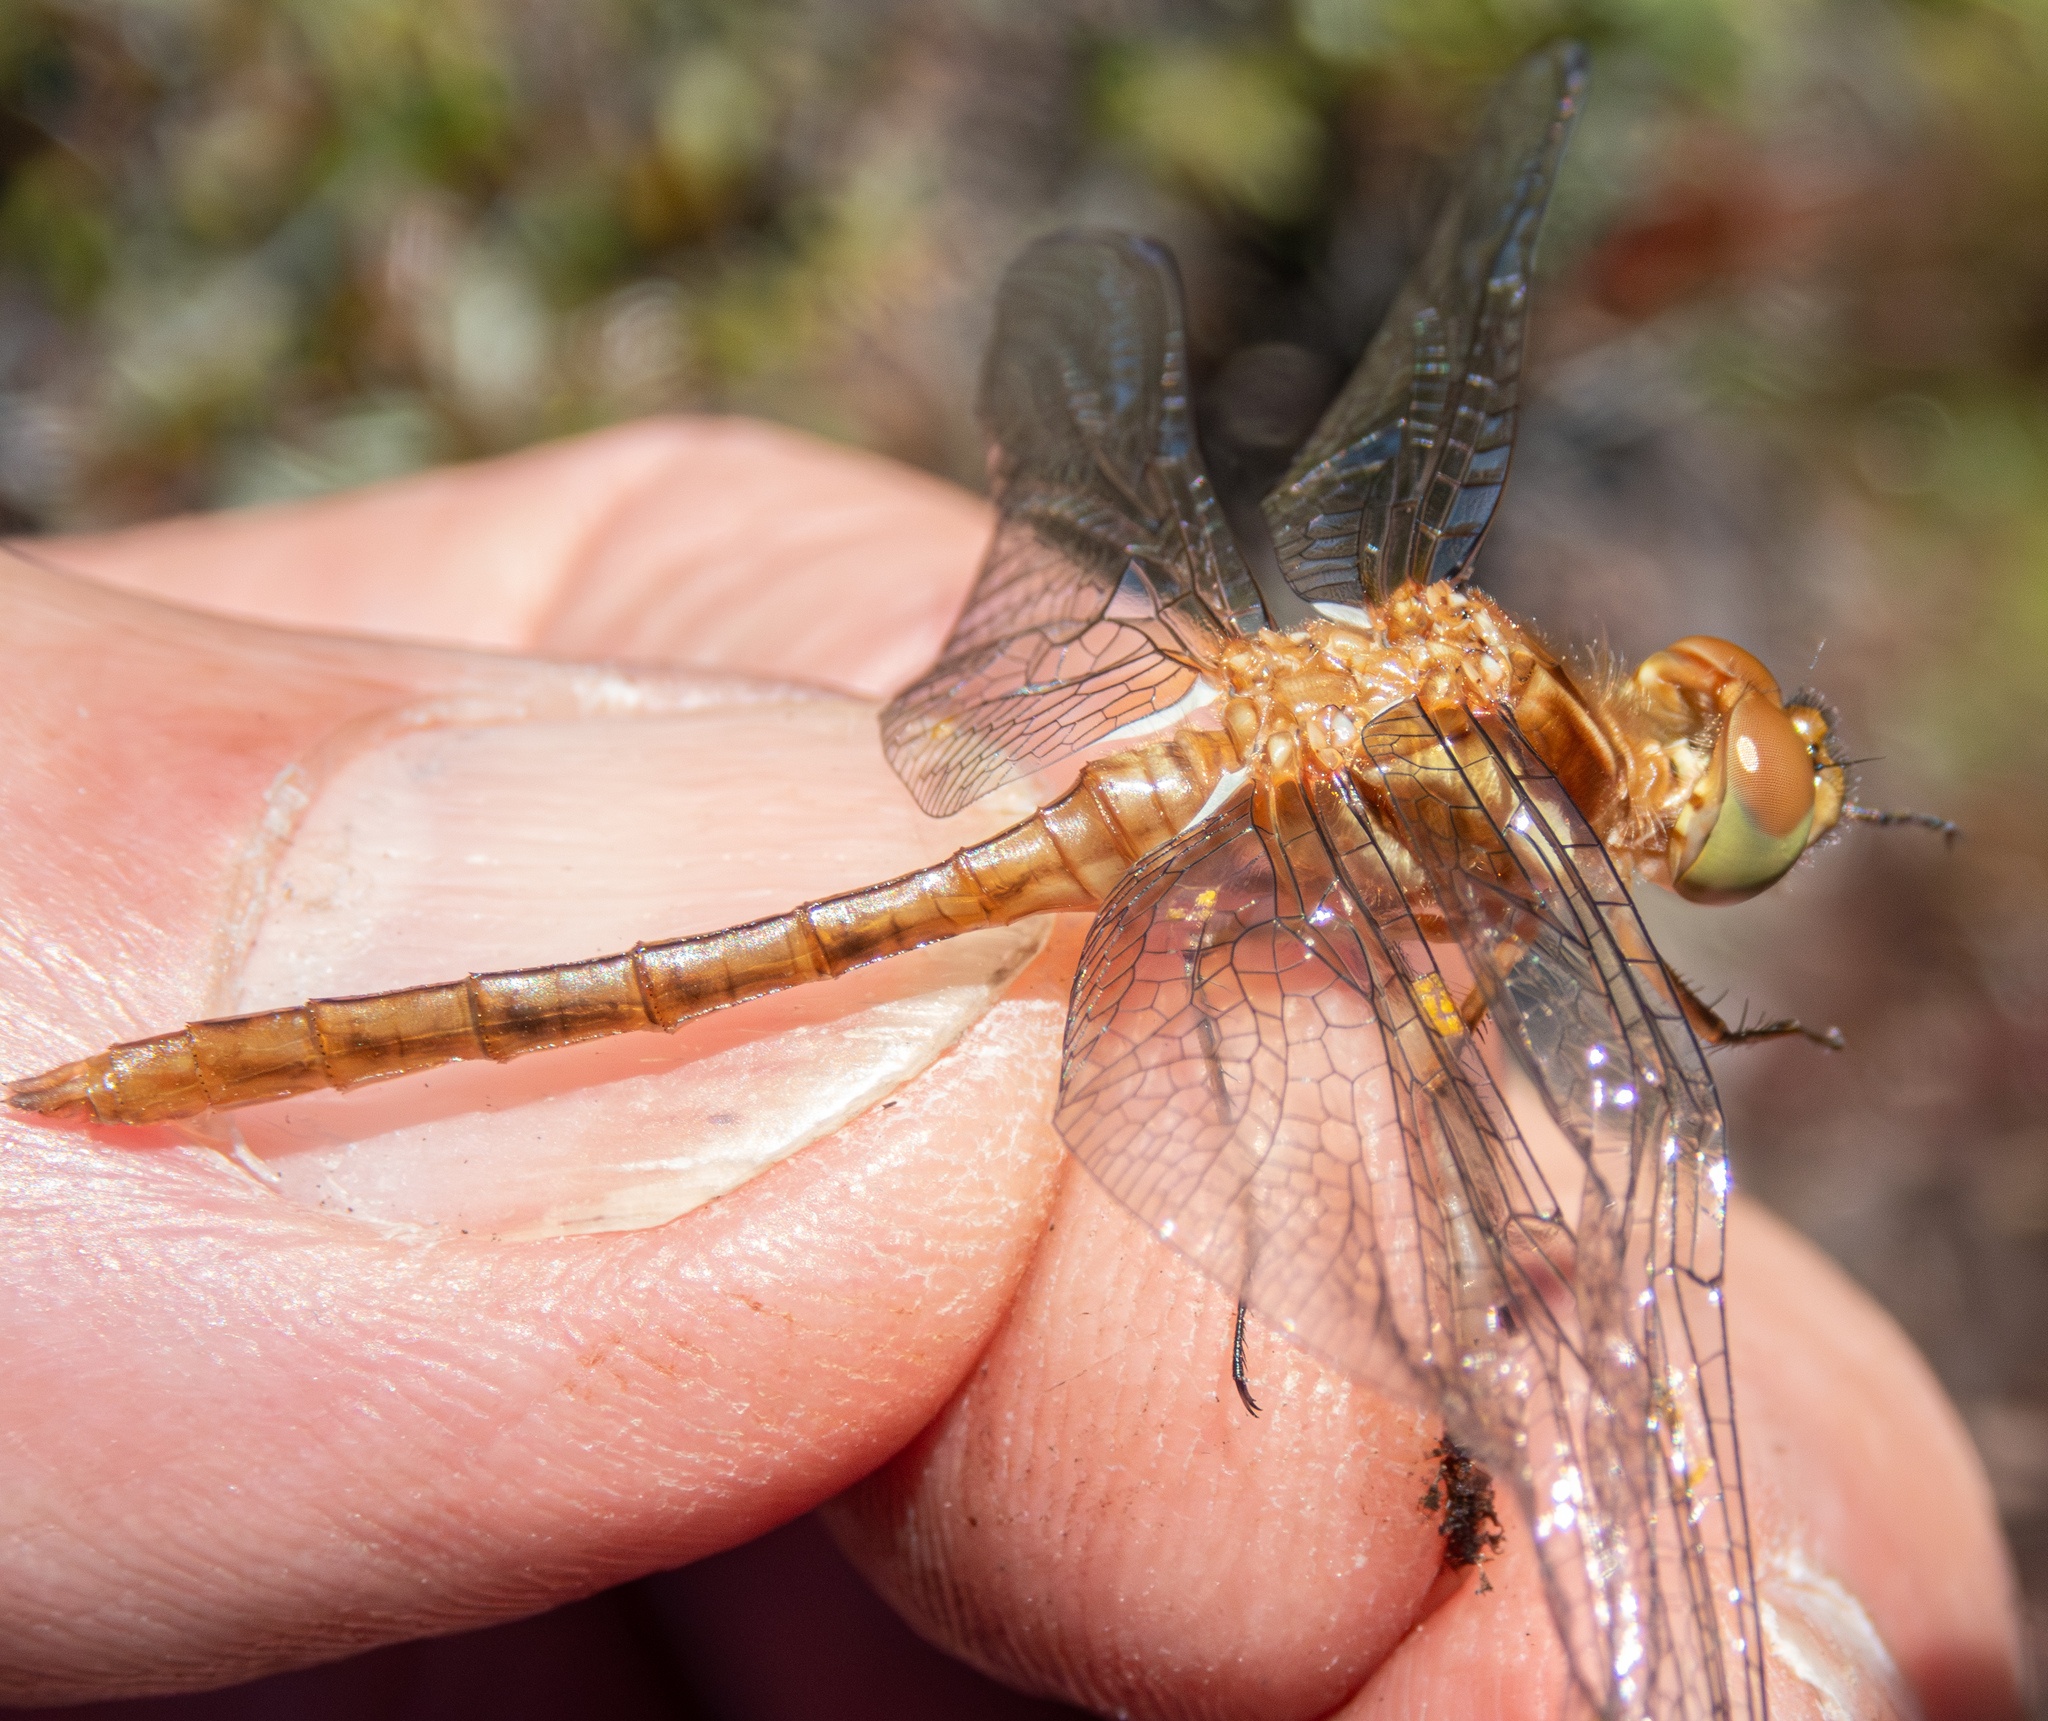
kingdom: Animalia
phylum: Arthropoda
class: Insecta
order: Odonata
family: Libellulidae
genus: Sympetrum
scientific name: Sympetrum pallipes
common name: Striped meadowhawk
